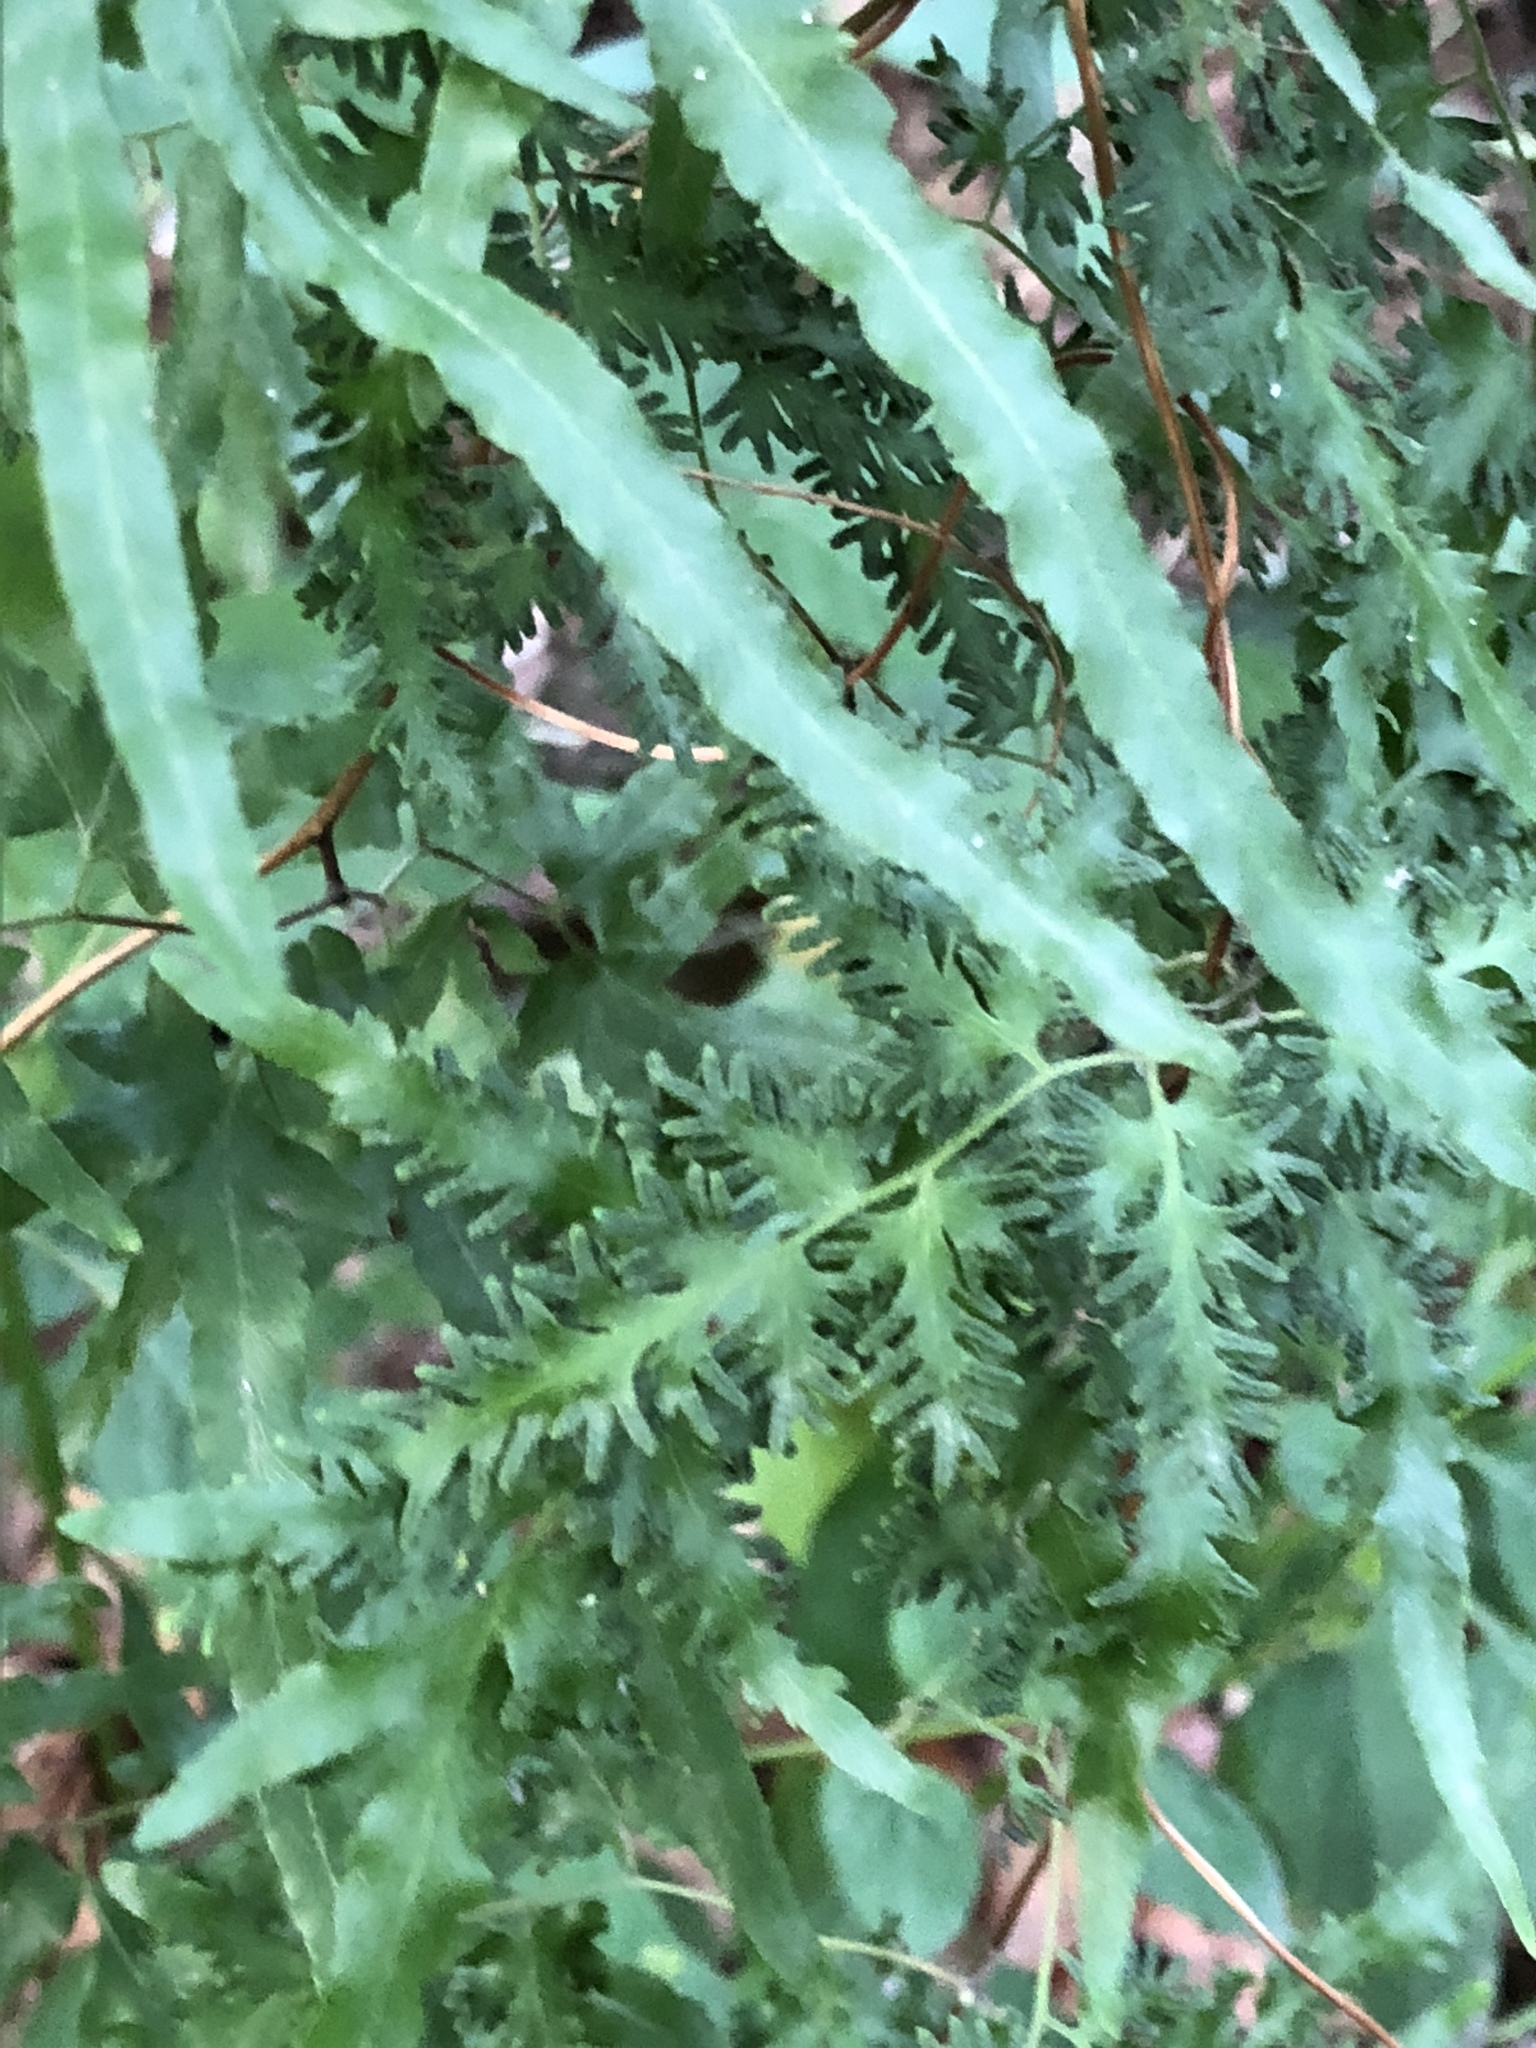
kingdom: Plantae
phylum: Tracheophyta
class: Polypodiopsida
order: Schizaeales
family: Lygodiaceae
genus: Lygodium
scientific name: Lygodium japonicum
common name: Japanese climbing fern
